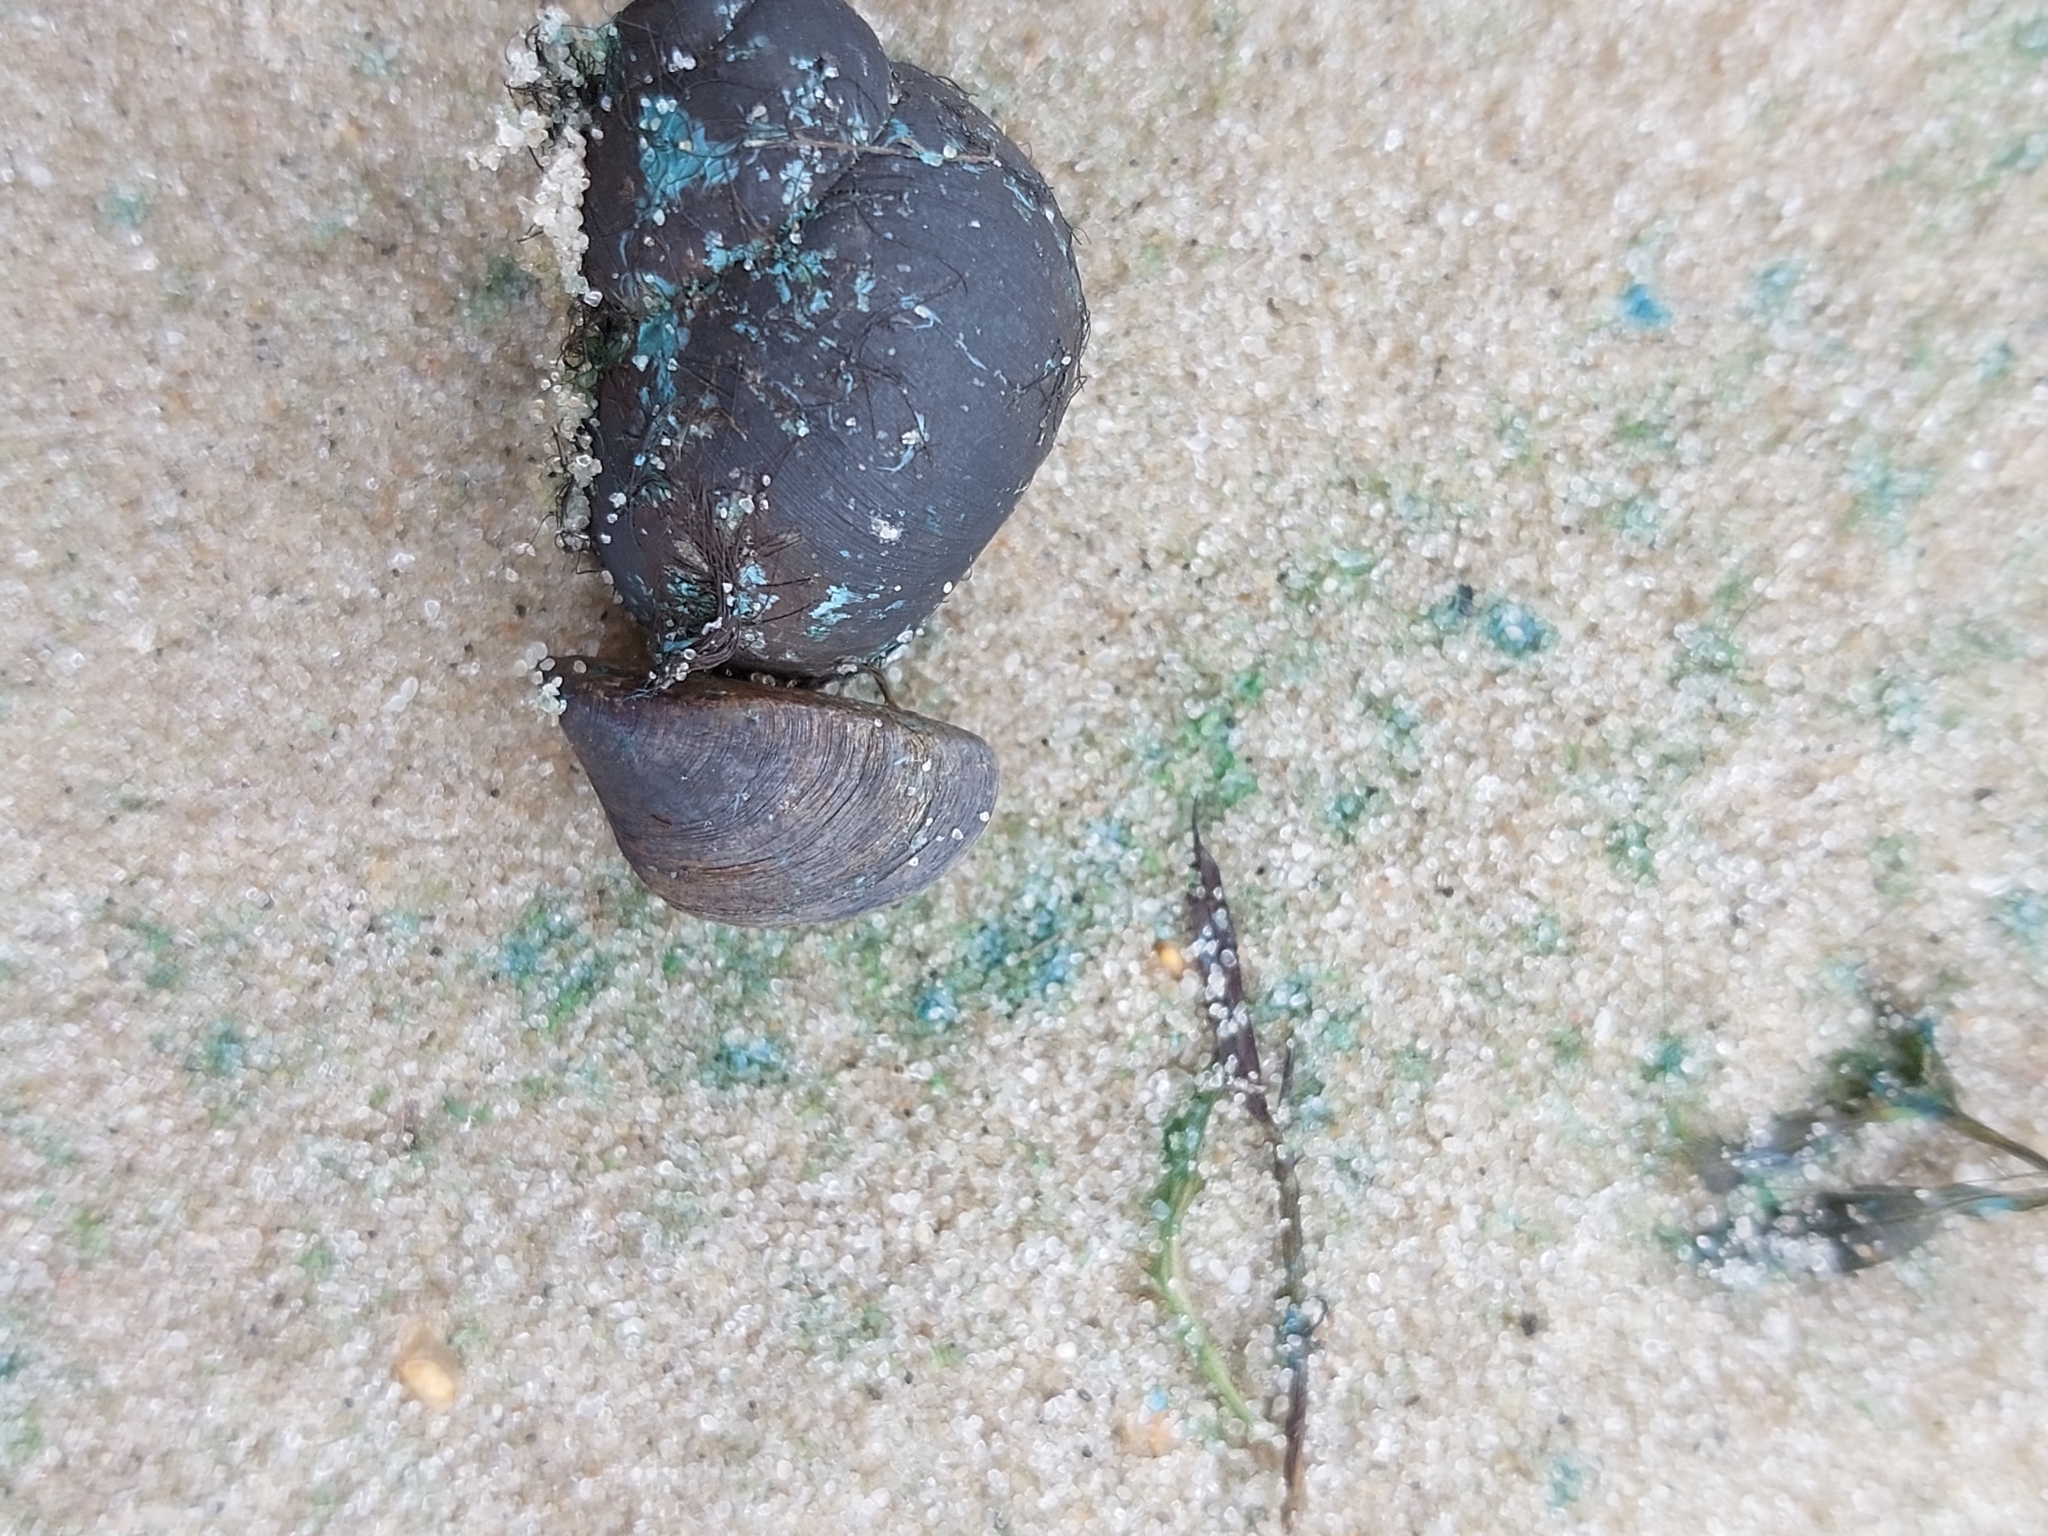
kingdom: Animalia
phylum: Mollusca
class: Bivalvia
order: Myida
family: Dreissenidae
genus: Dreissena
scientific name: Dreissena polymorpha
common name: Zebra mussel
